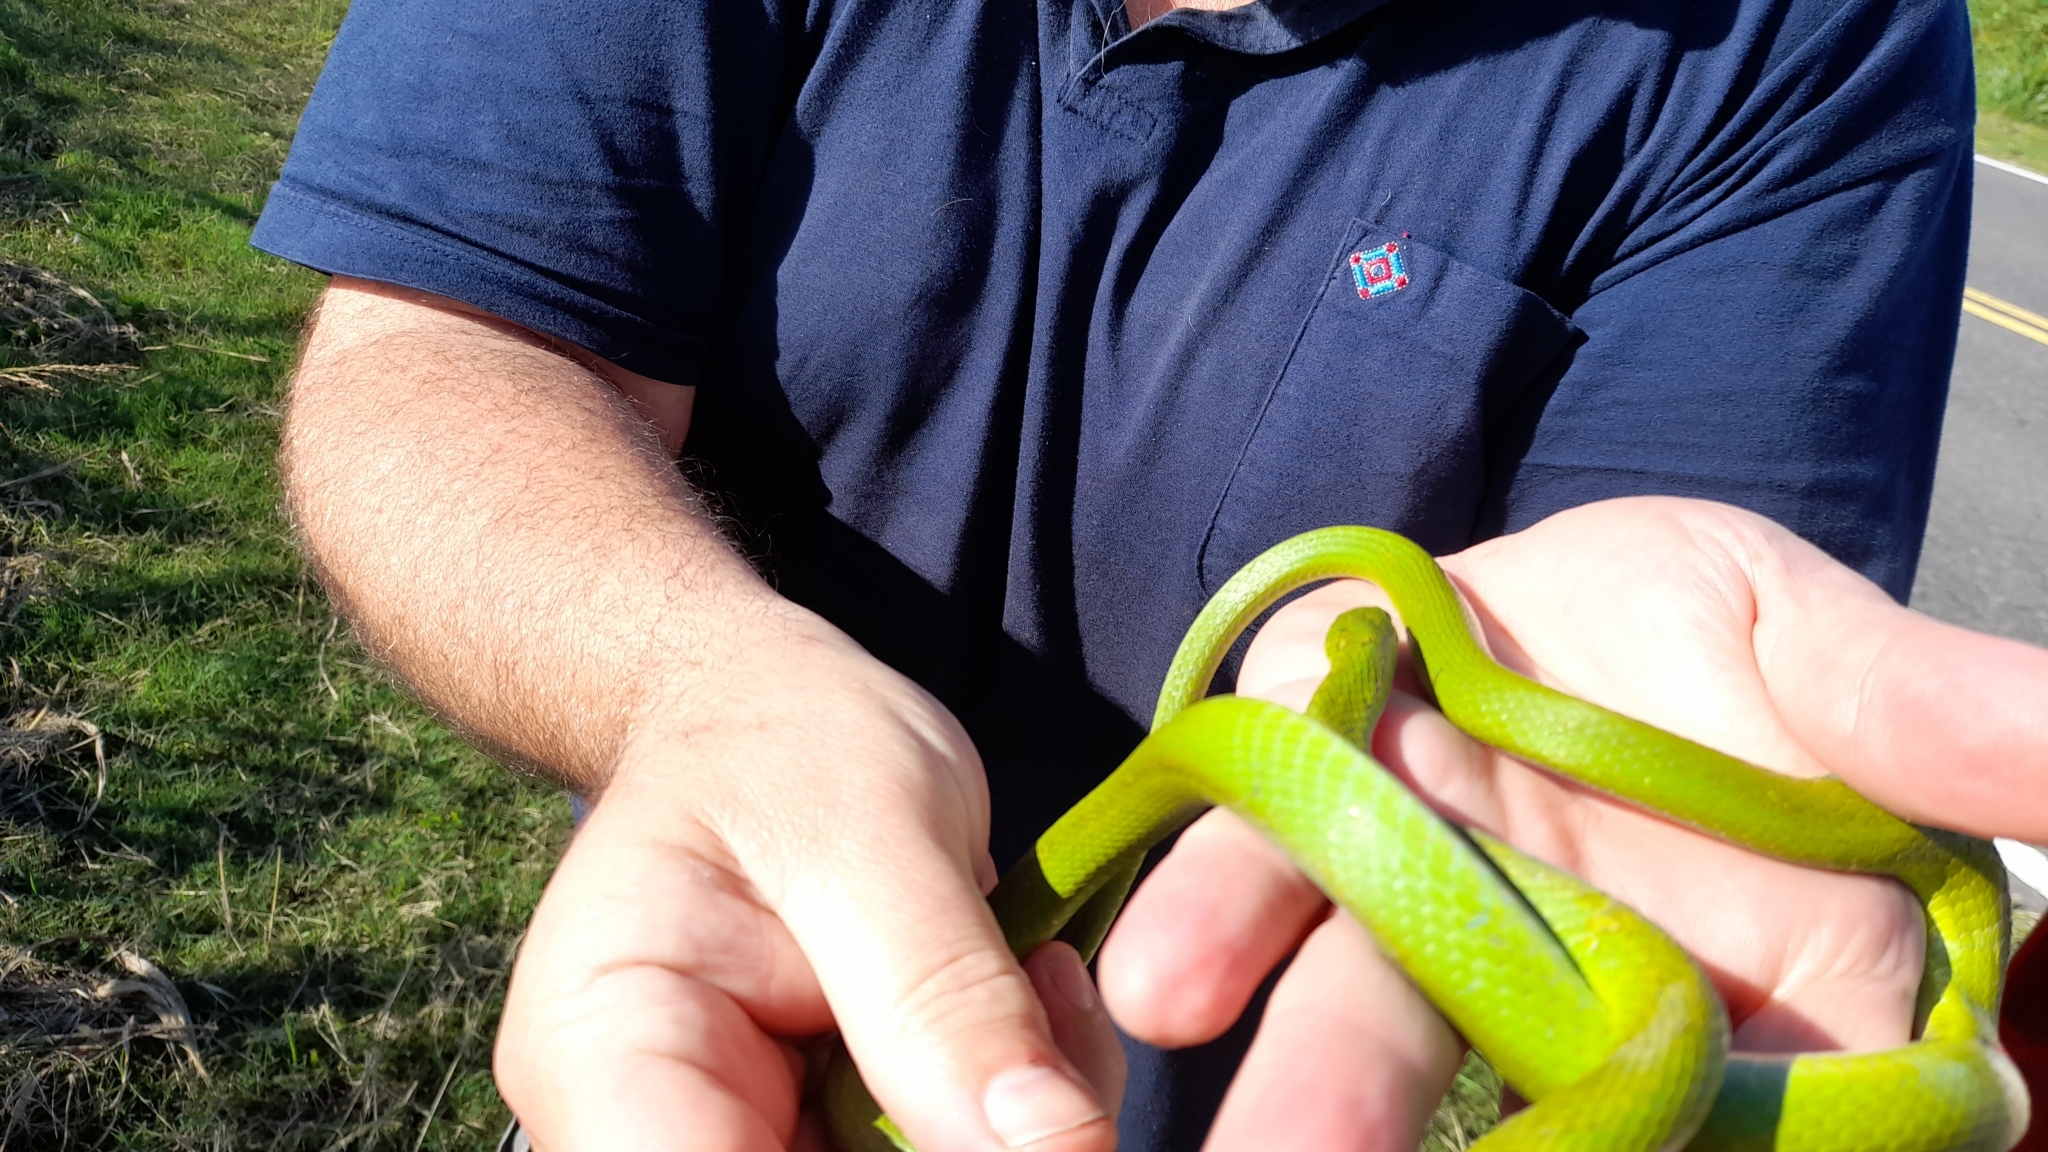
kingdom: Animalia
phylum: Chordata
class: Squamata
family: Colubridae
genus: Philodryas
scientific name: Philodryas aestiva
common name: Brazilian green racer
